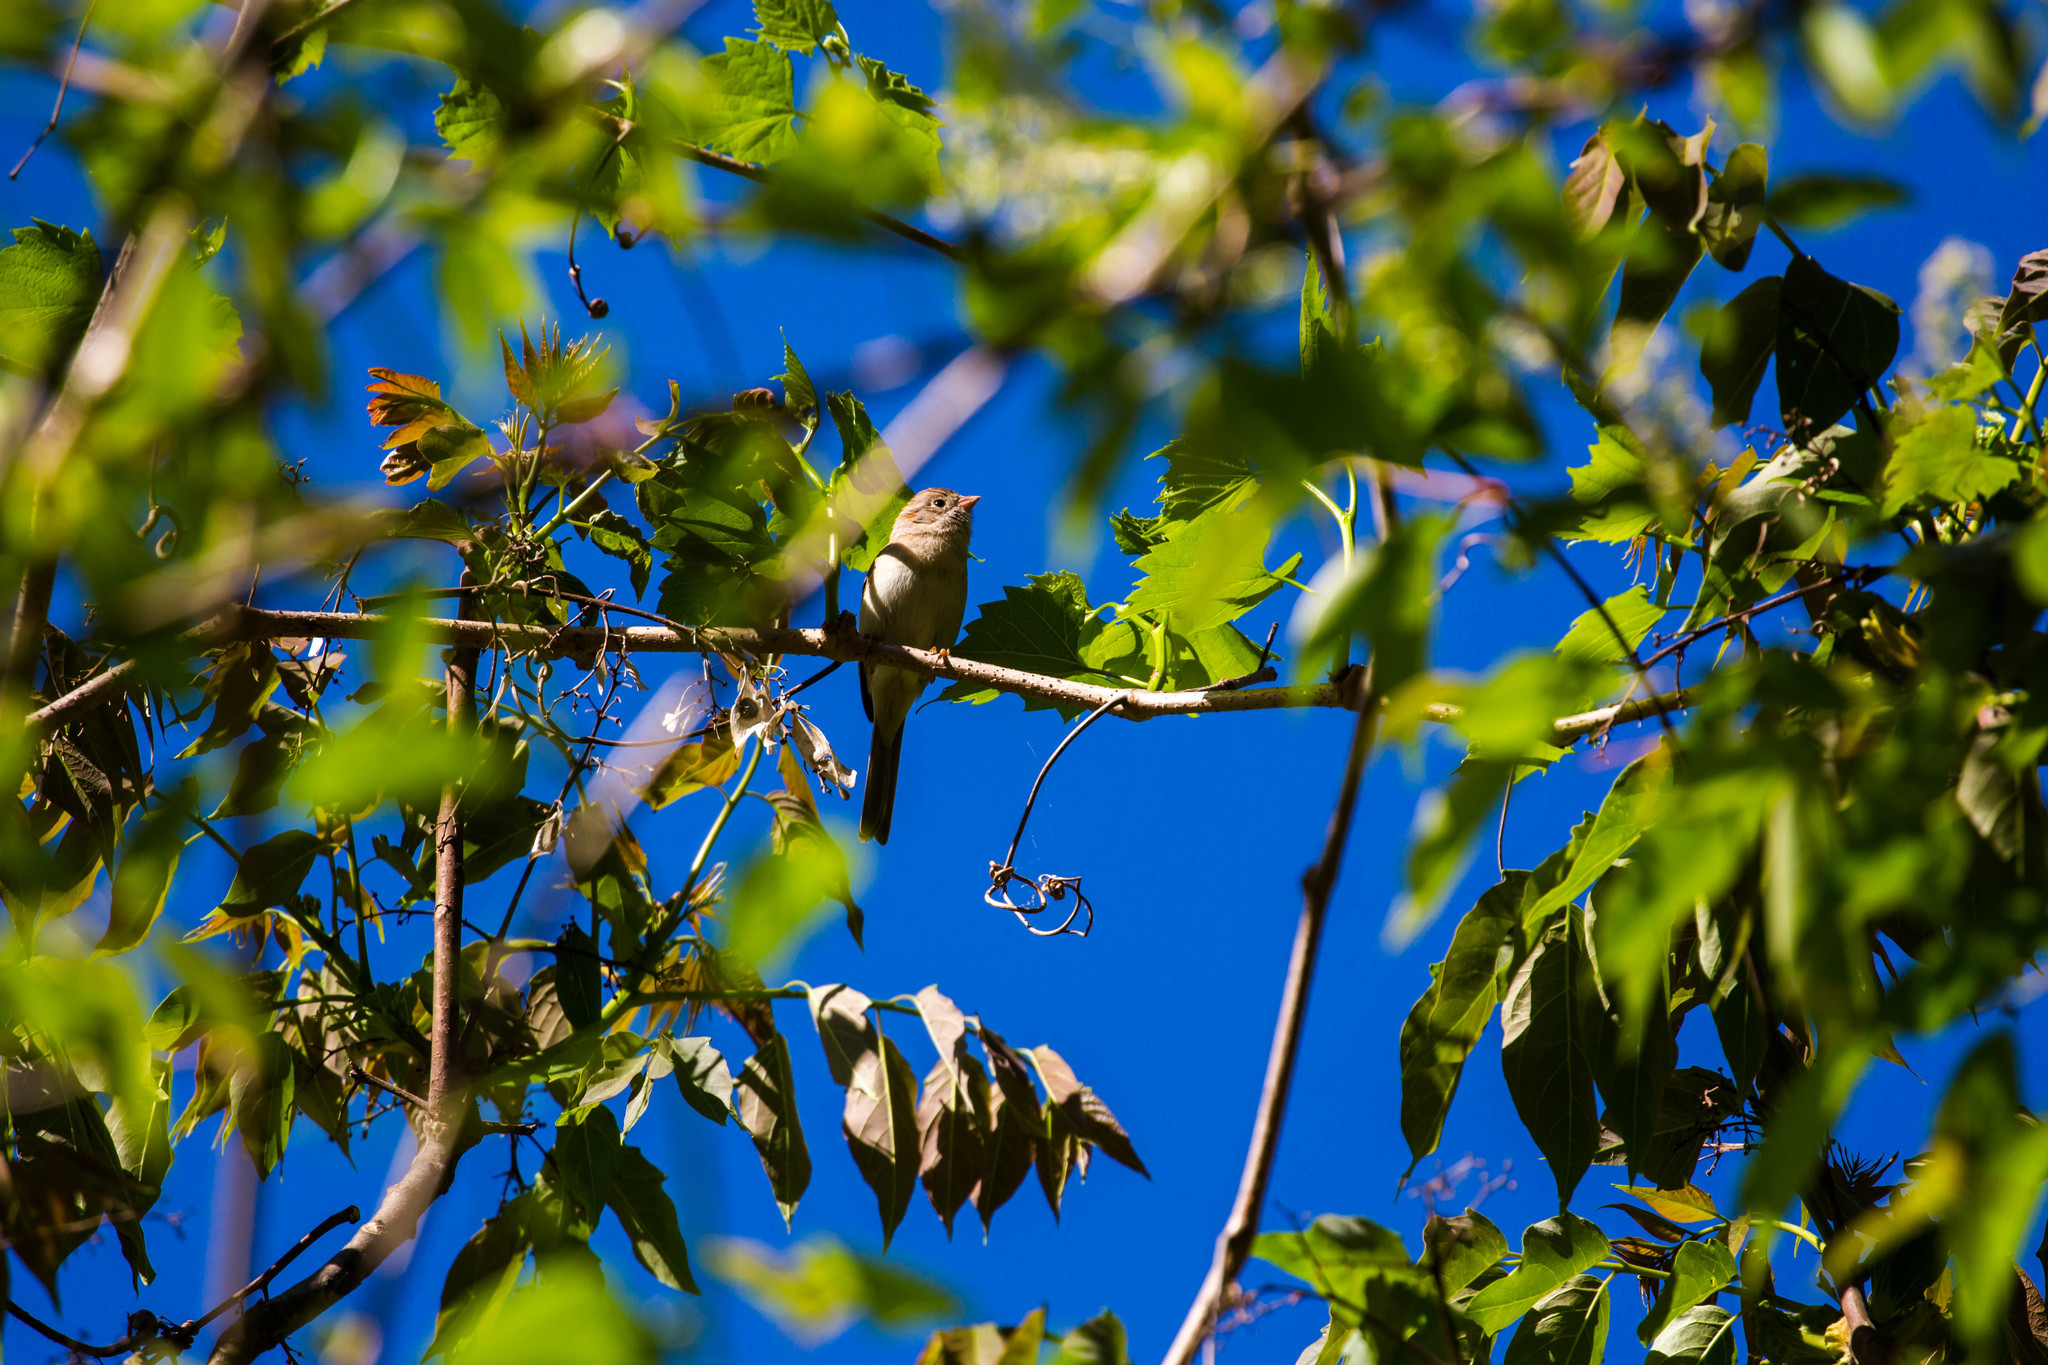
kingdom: Animalia
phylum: Chordata
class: Aves
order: Passeriformes
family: Passerellidae
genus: Spizella
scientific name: Spizella pusilla
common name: Field sparrow
